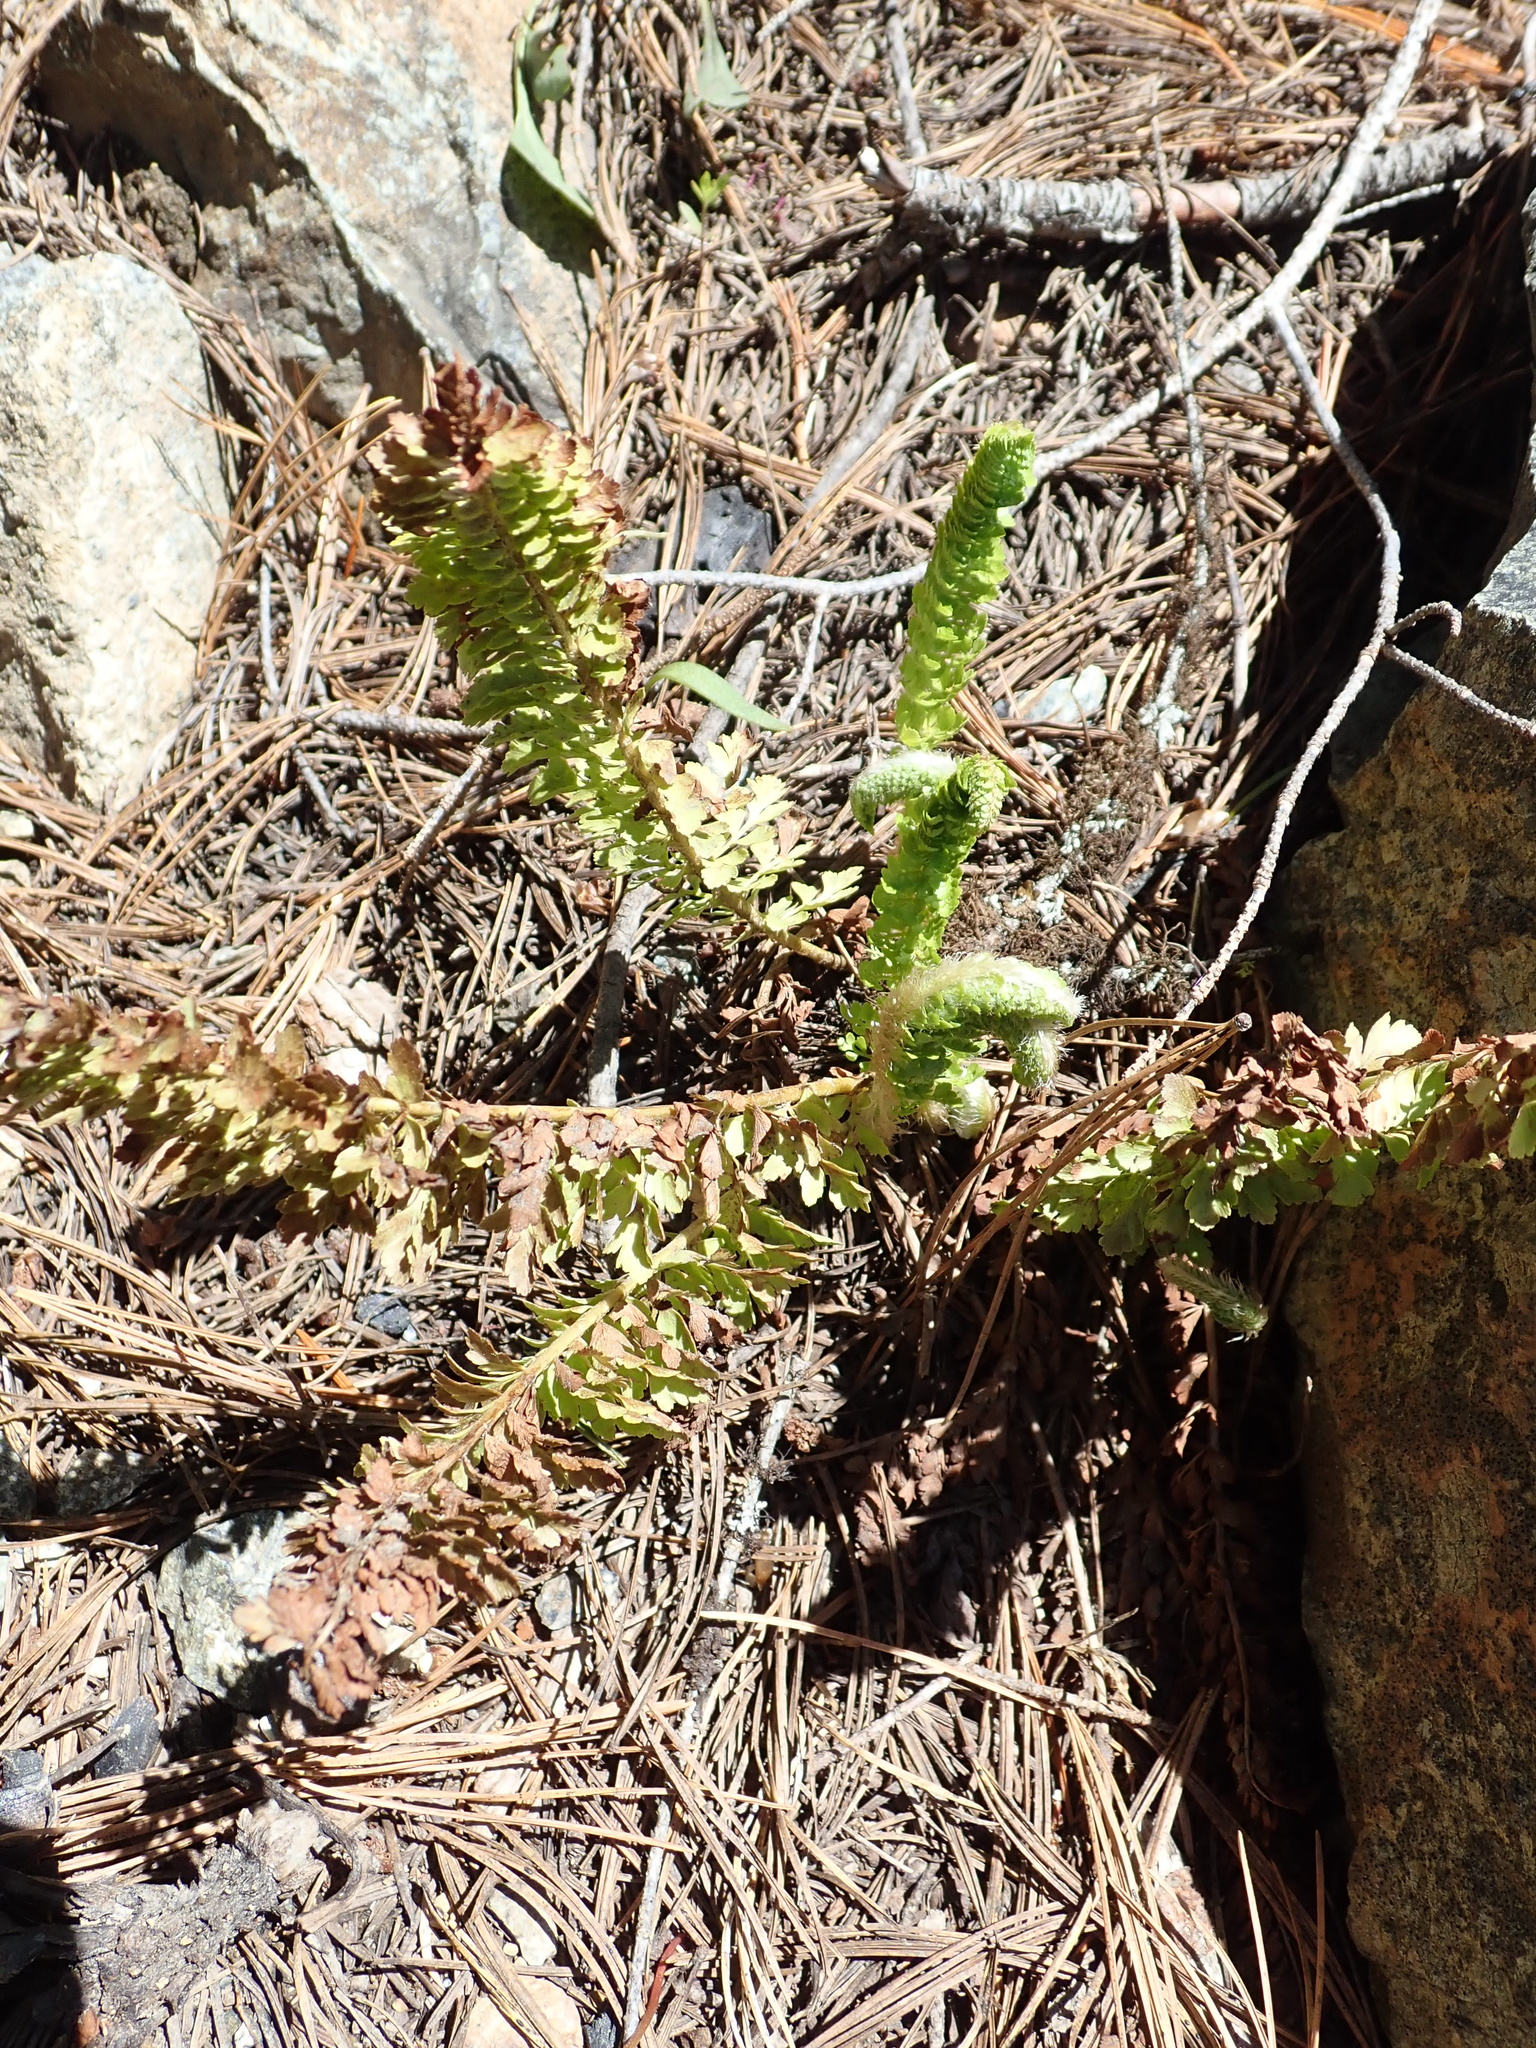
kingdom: Plantae
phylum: Tracheophyta
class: Polypodiopsida
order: Polypodiales
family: Dryopteridaceae
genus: Polystichum
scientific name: Polystichum lemmonii
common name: Lemmon's holly fern
